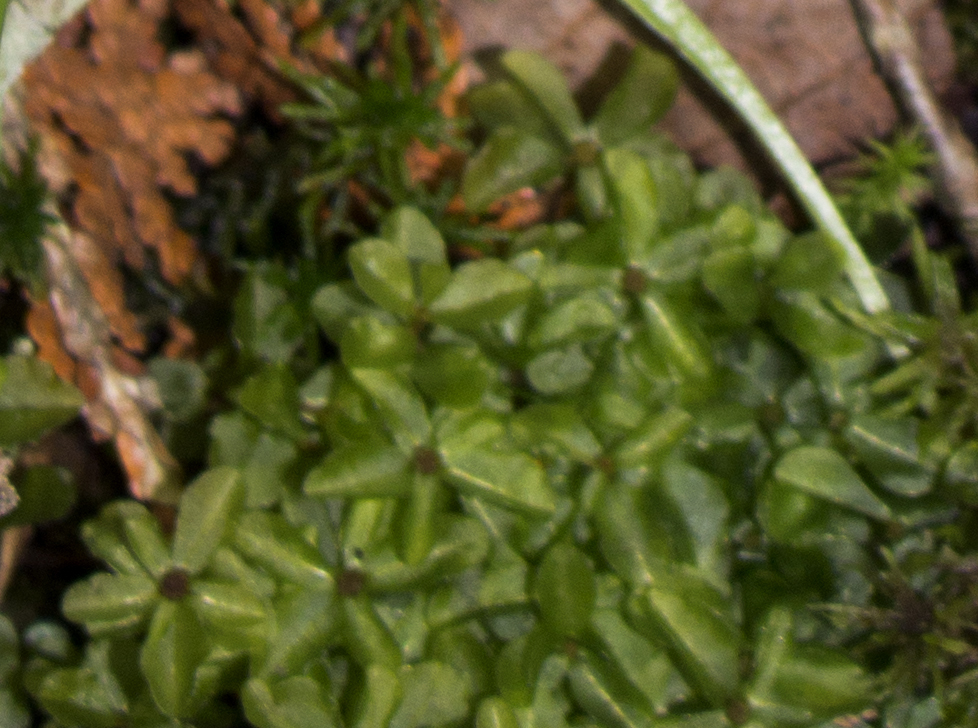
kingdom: Plantae
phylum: Bryophyta
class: Bryopsida
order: Bryales
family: Mniaceae
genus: Rhizomnium
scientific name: Rhizomnium punctatum
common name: Dotted leafy moss
